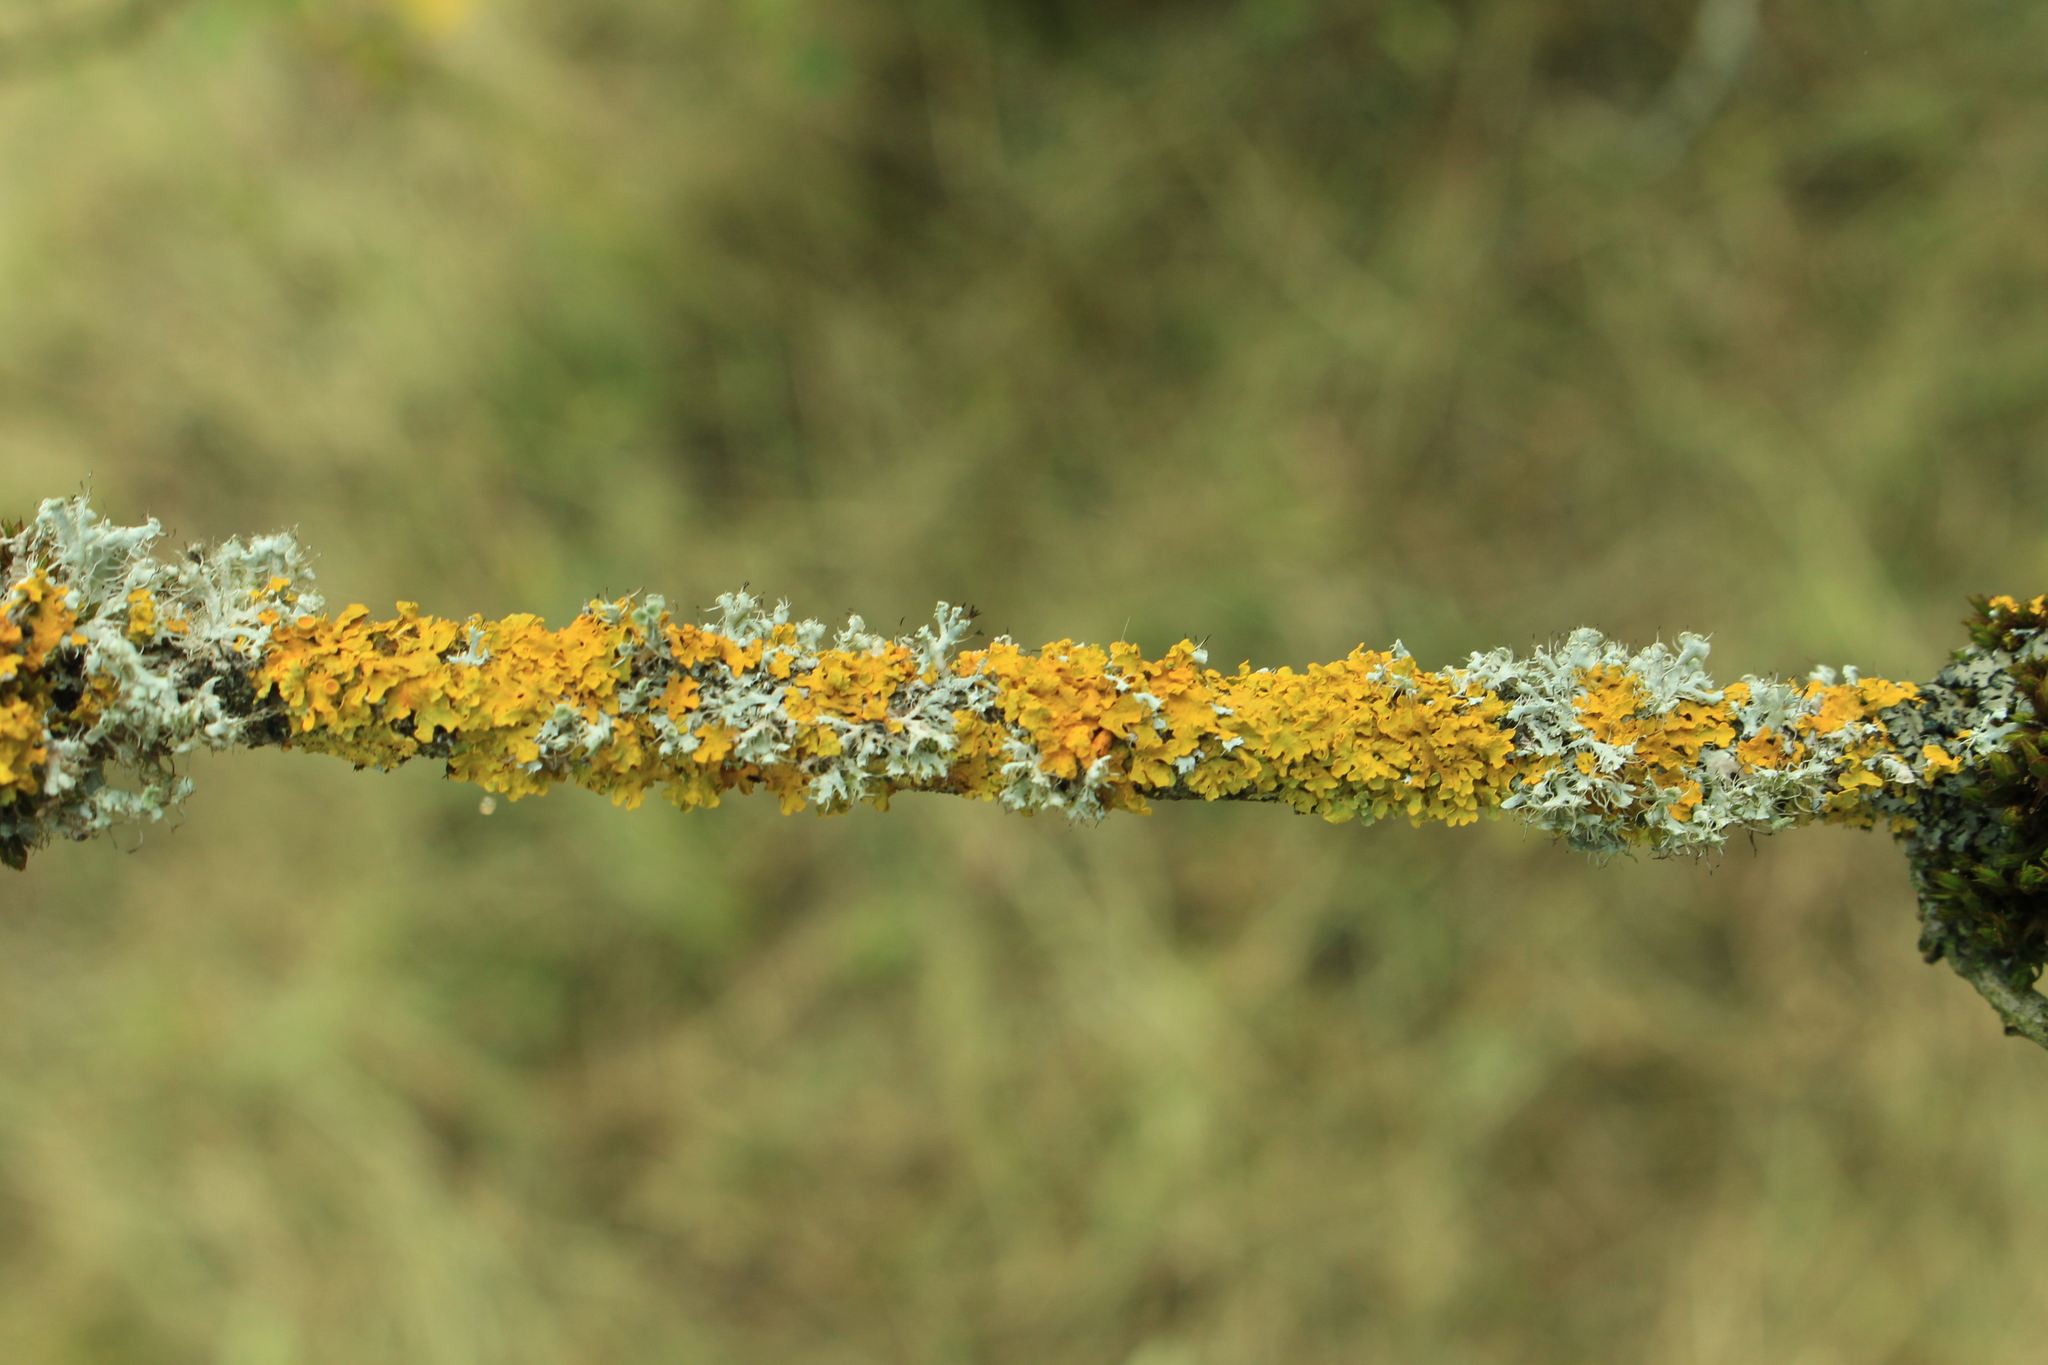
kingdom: Fungi
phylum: Ascomycota
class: Lecanoromycetes
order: Teloschistales
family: Teloschistaceae
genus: Xanthoria
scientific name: Xanthoria parietina
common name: Common orange lichen
